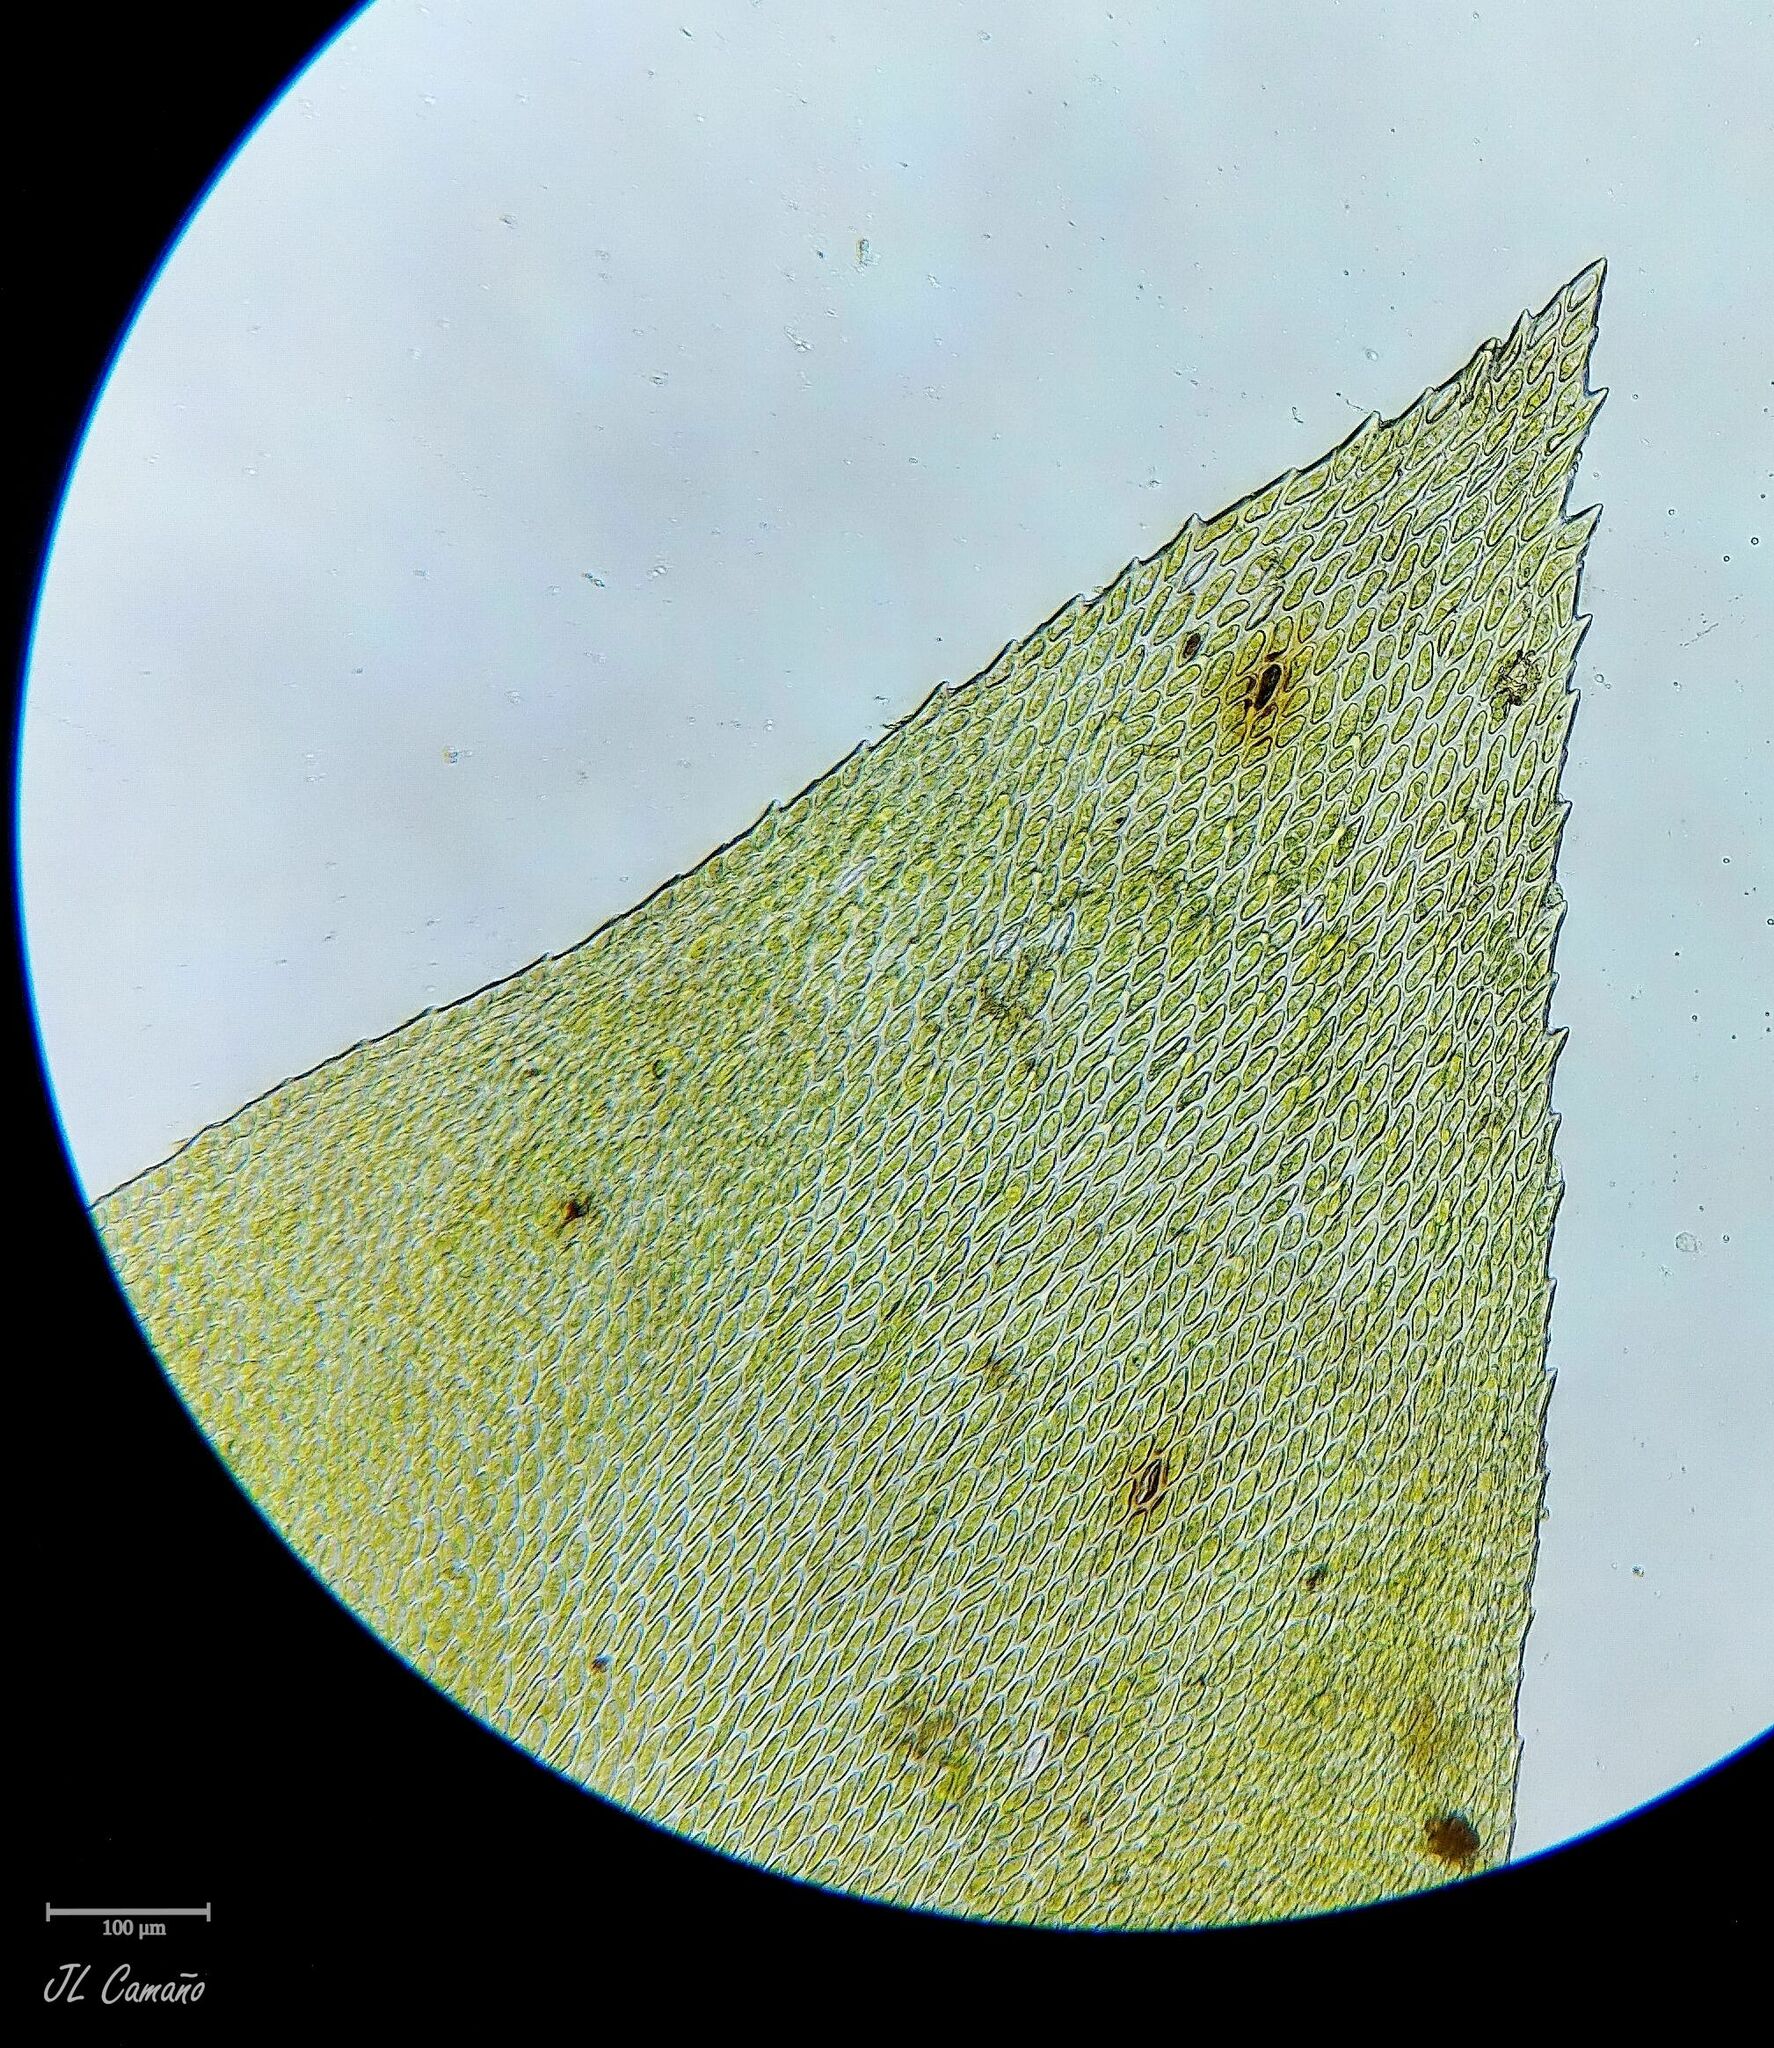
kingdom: Plantae
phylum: Bryophyta
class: Bryopsida
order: Hypnales
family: Lembophyllaceae
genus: Nogopterium
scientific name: Nogopterium gracile
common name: Bird's-foot wing-moss
